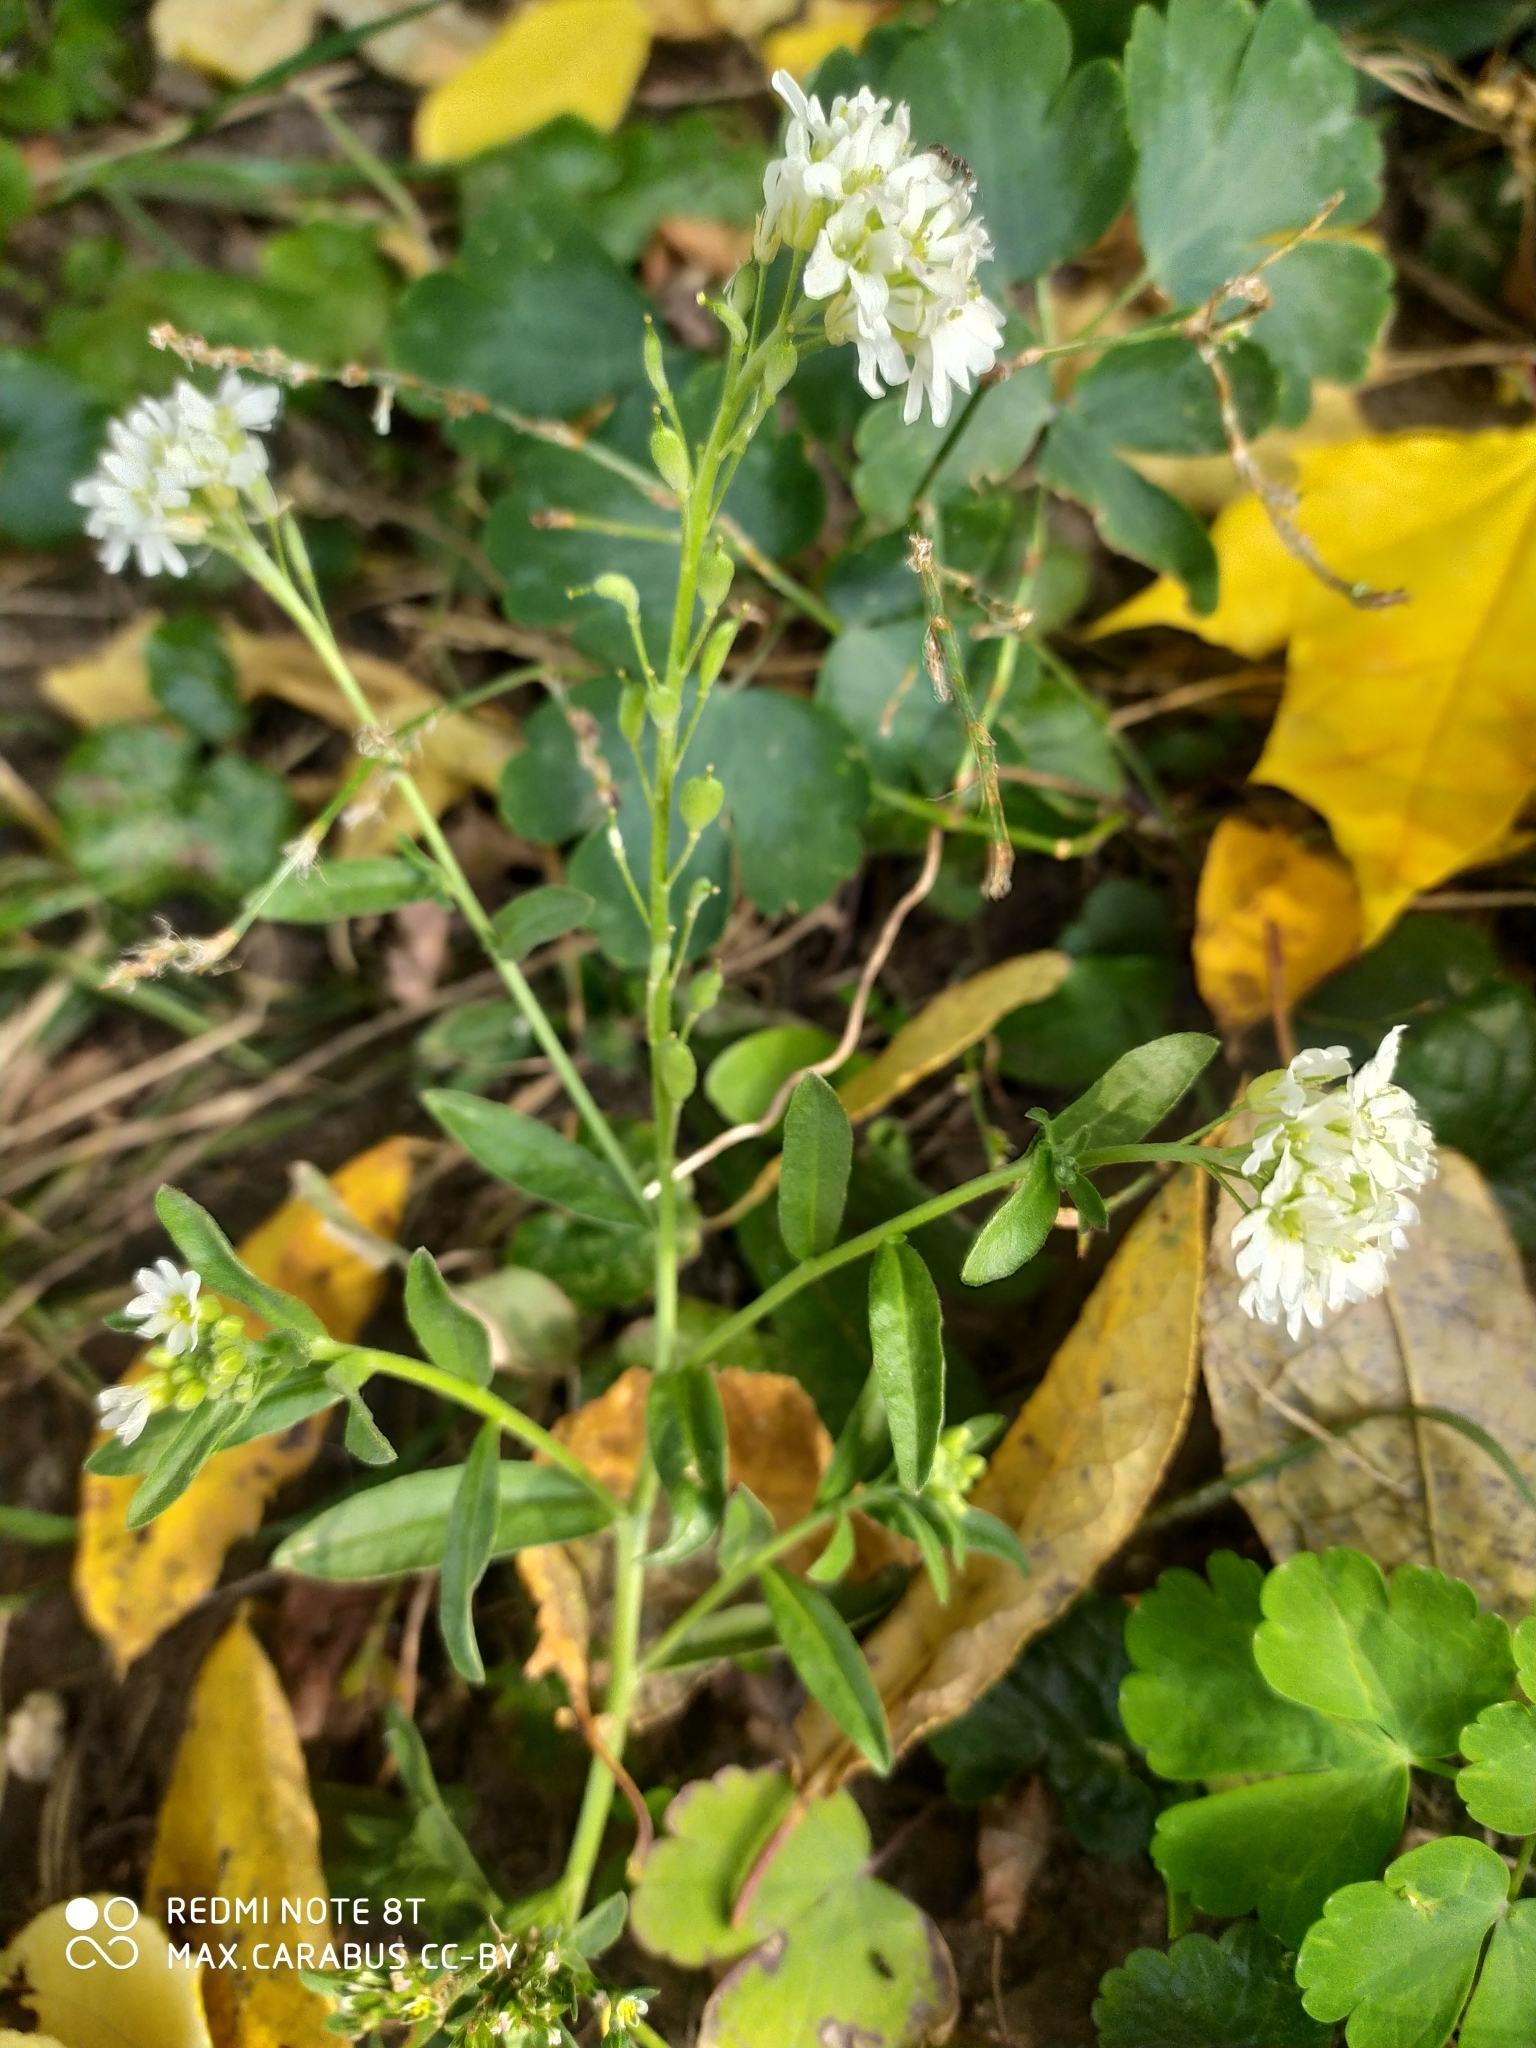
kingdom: Plantae
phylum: Tracheophyta
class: Magnoliopsida
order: Brassicales
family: Brassicaceae
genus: Berteroa
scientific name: Berteroa incana
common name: Hoary alison
